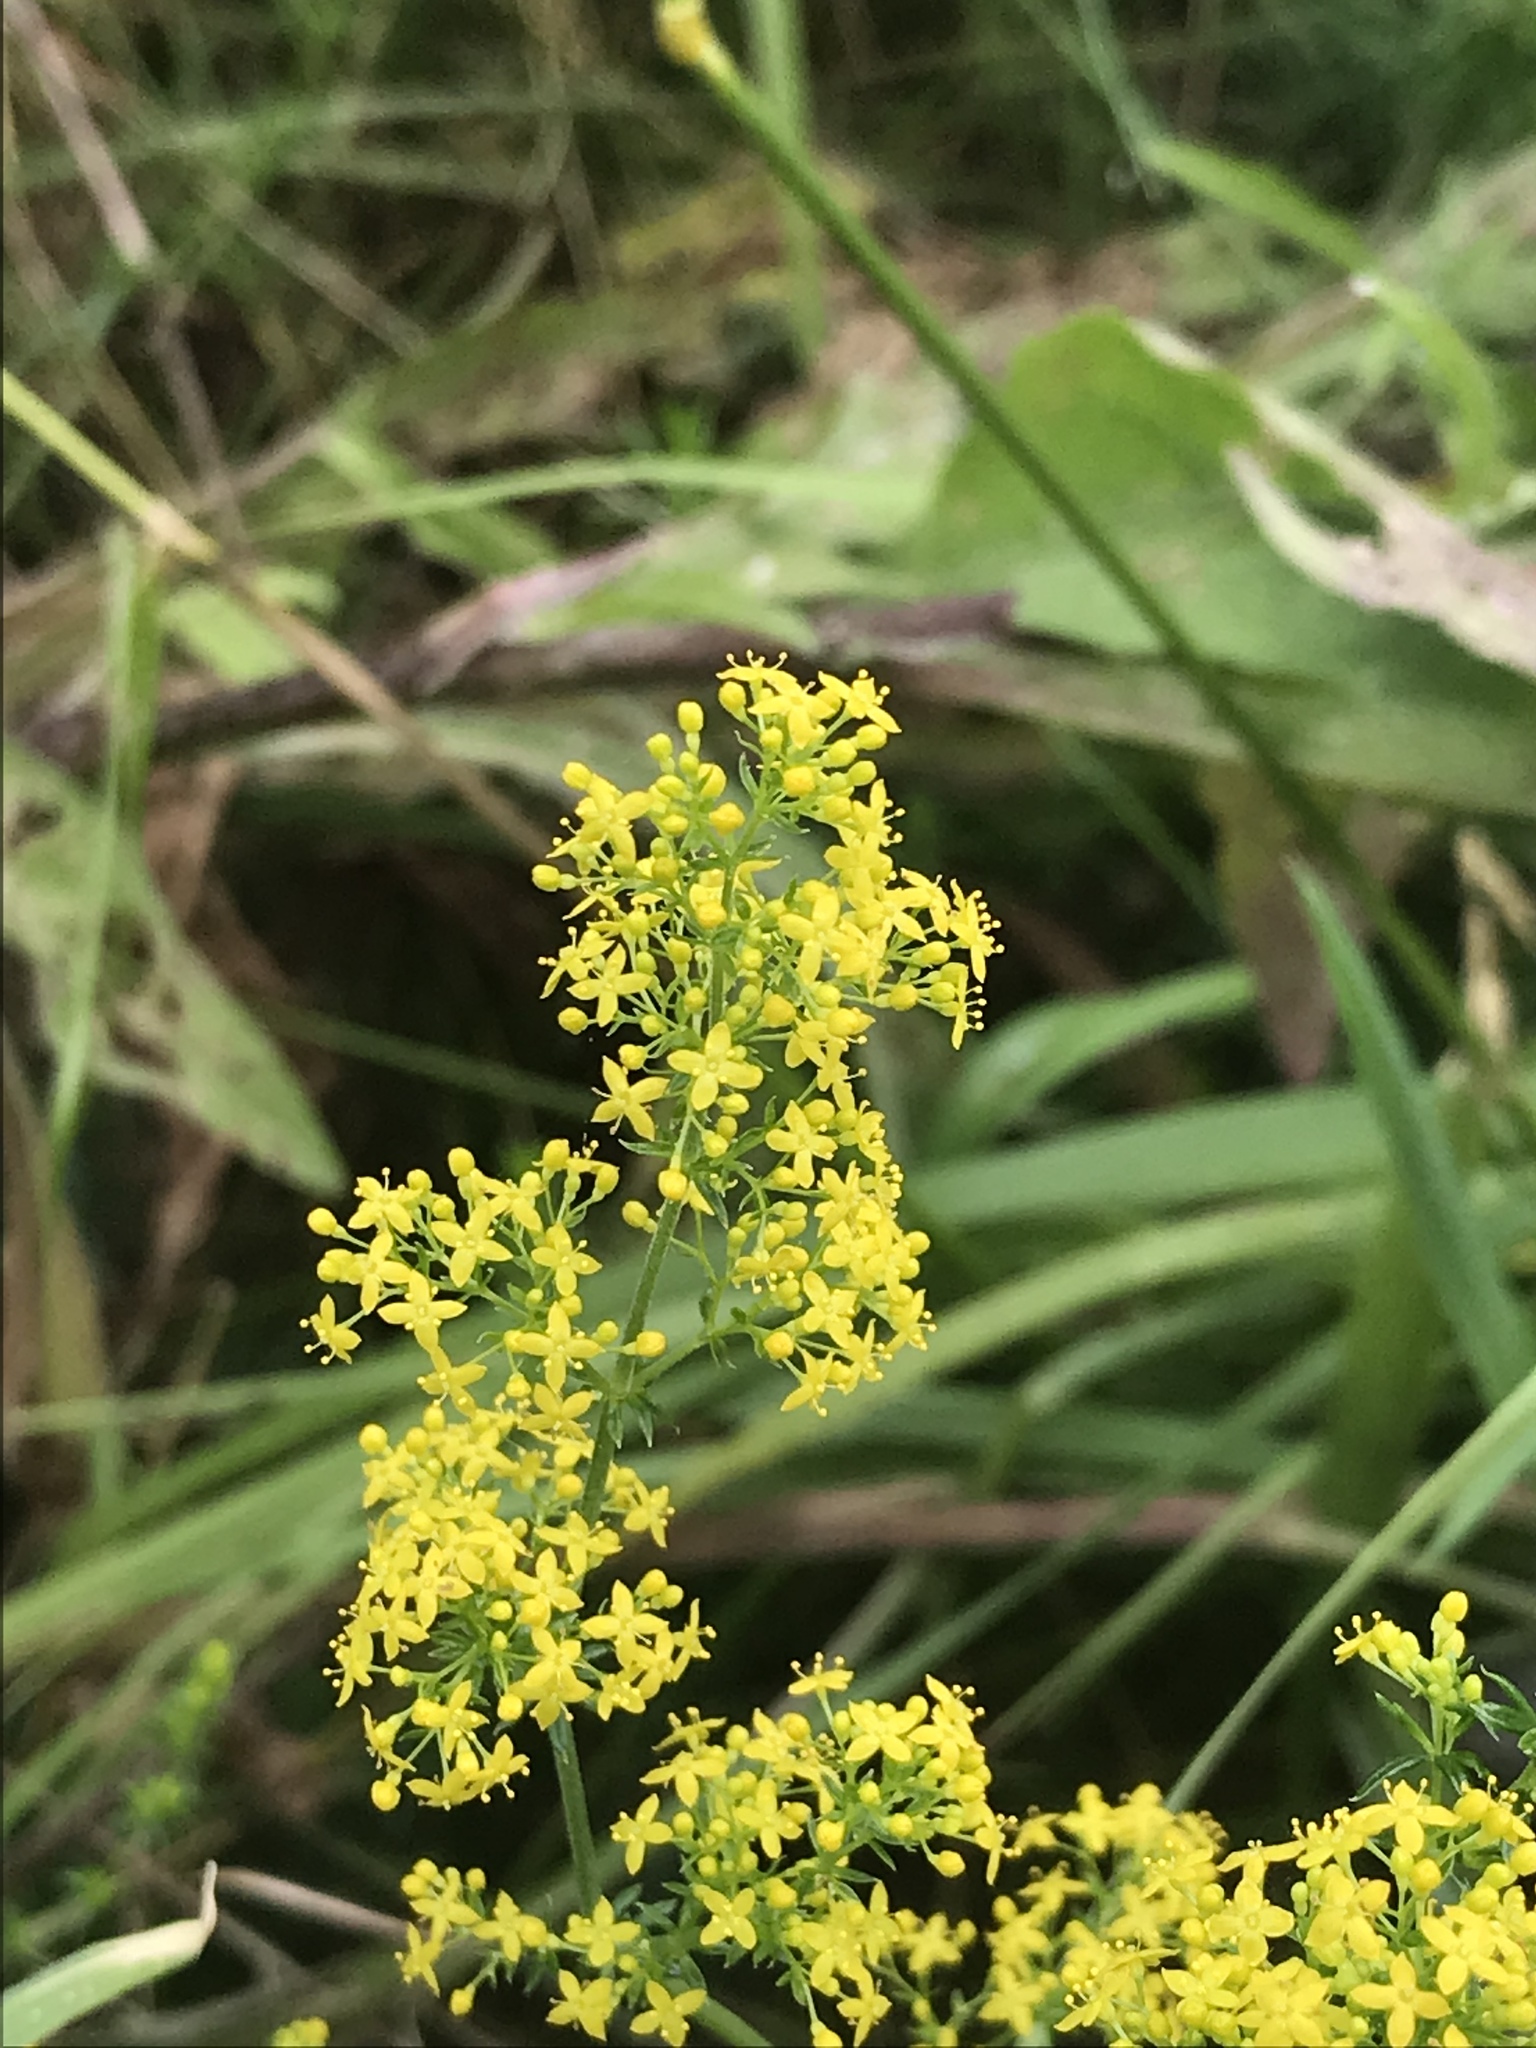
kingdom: Plantae
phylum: Tracheophyta
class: Magnoliopsida
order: Gentianales
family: Rubiaceae
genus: Galium
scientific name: Galium verum
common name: Lady's bedstraw
